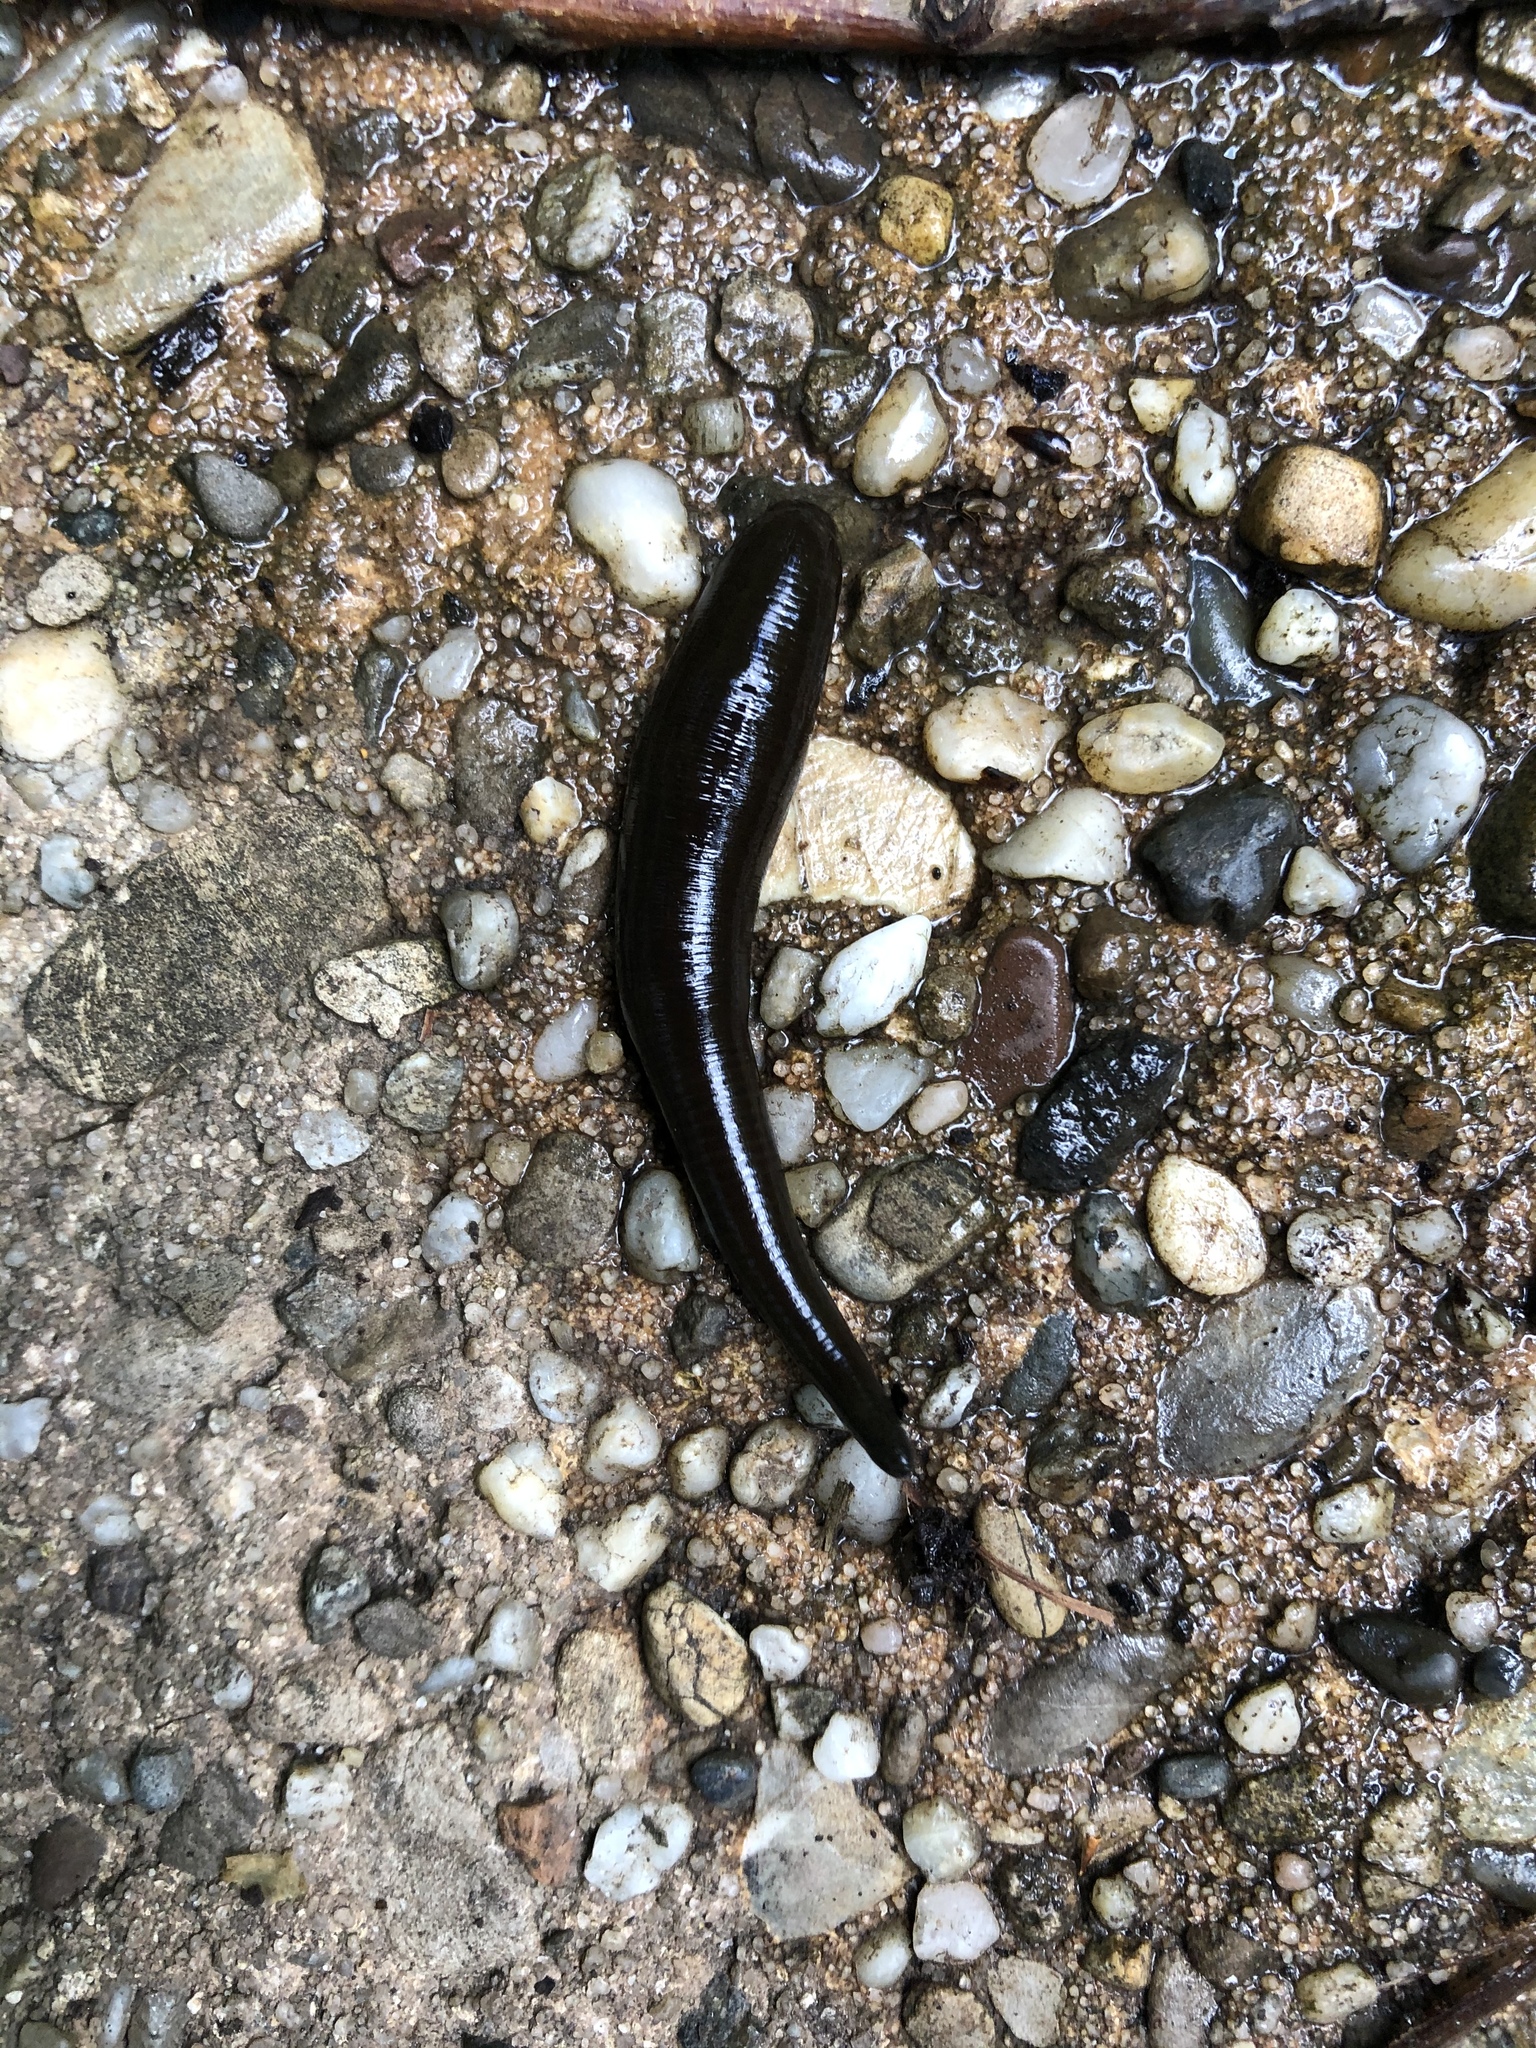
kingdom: Animalia
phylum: Annelida
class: Clitellata
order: Arhynchobdellida
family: Haemopidae
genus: Haemopis
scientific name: Haemopis sanguisuga
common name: Horse leech
